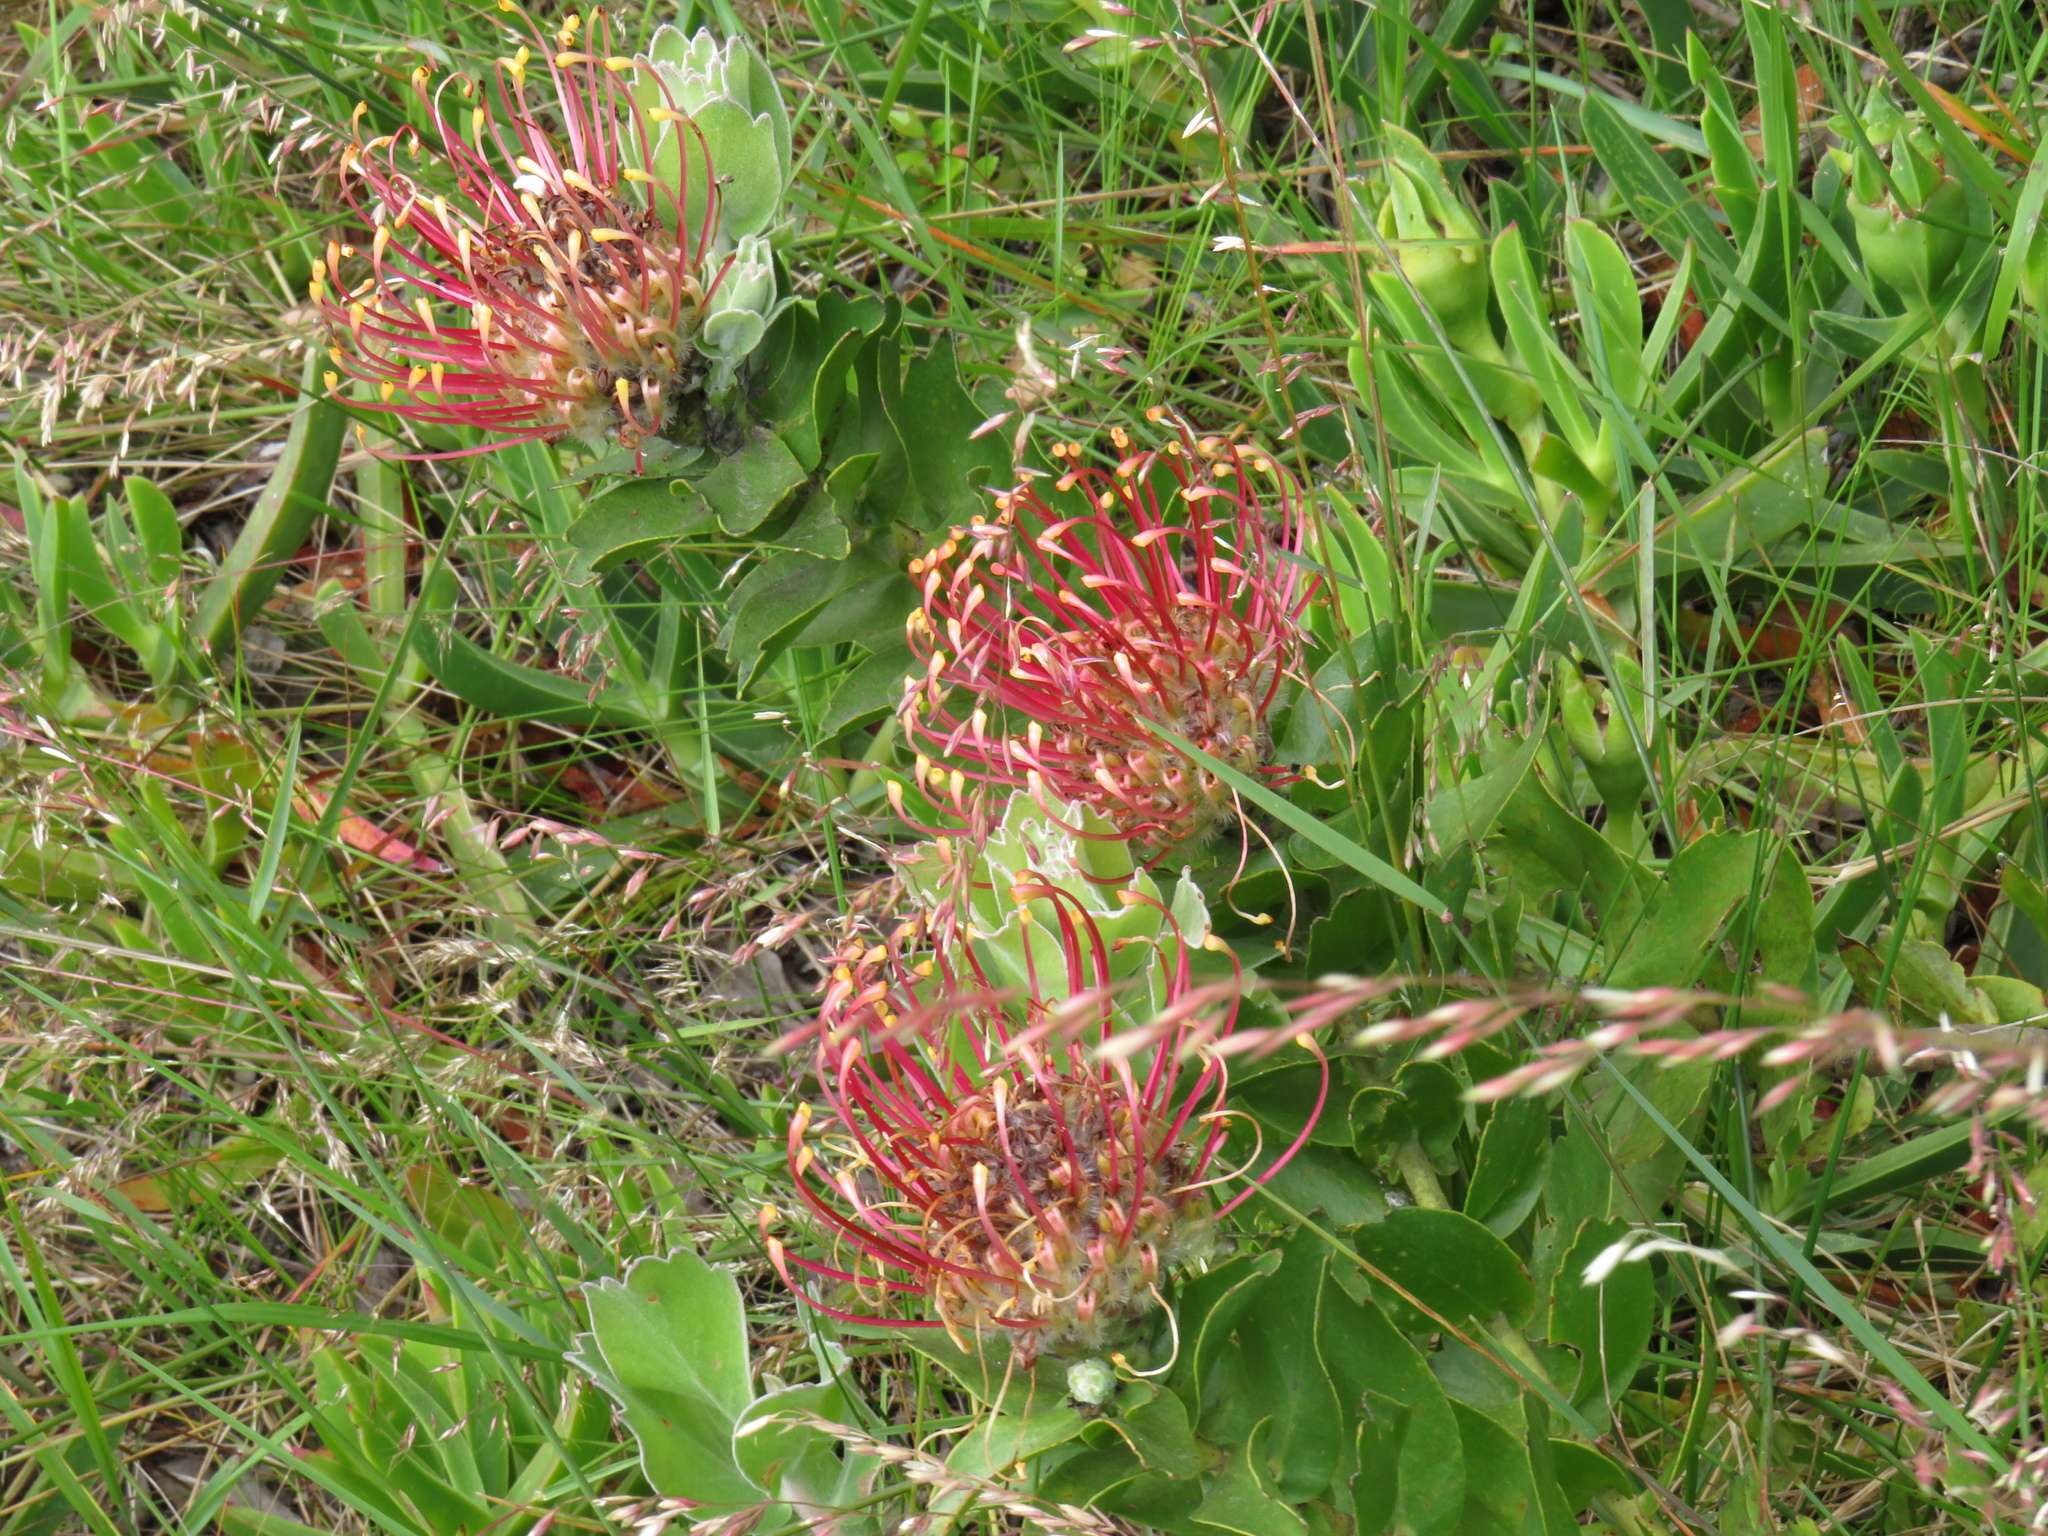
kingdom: Plantae
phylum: Tracheophyta
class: Magnoliopsida
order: Proteales
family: Proteaceae
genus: Leucospermum
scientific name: Leucospermum patersonii
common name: False tree pincushion
